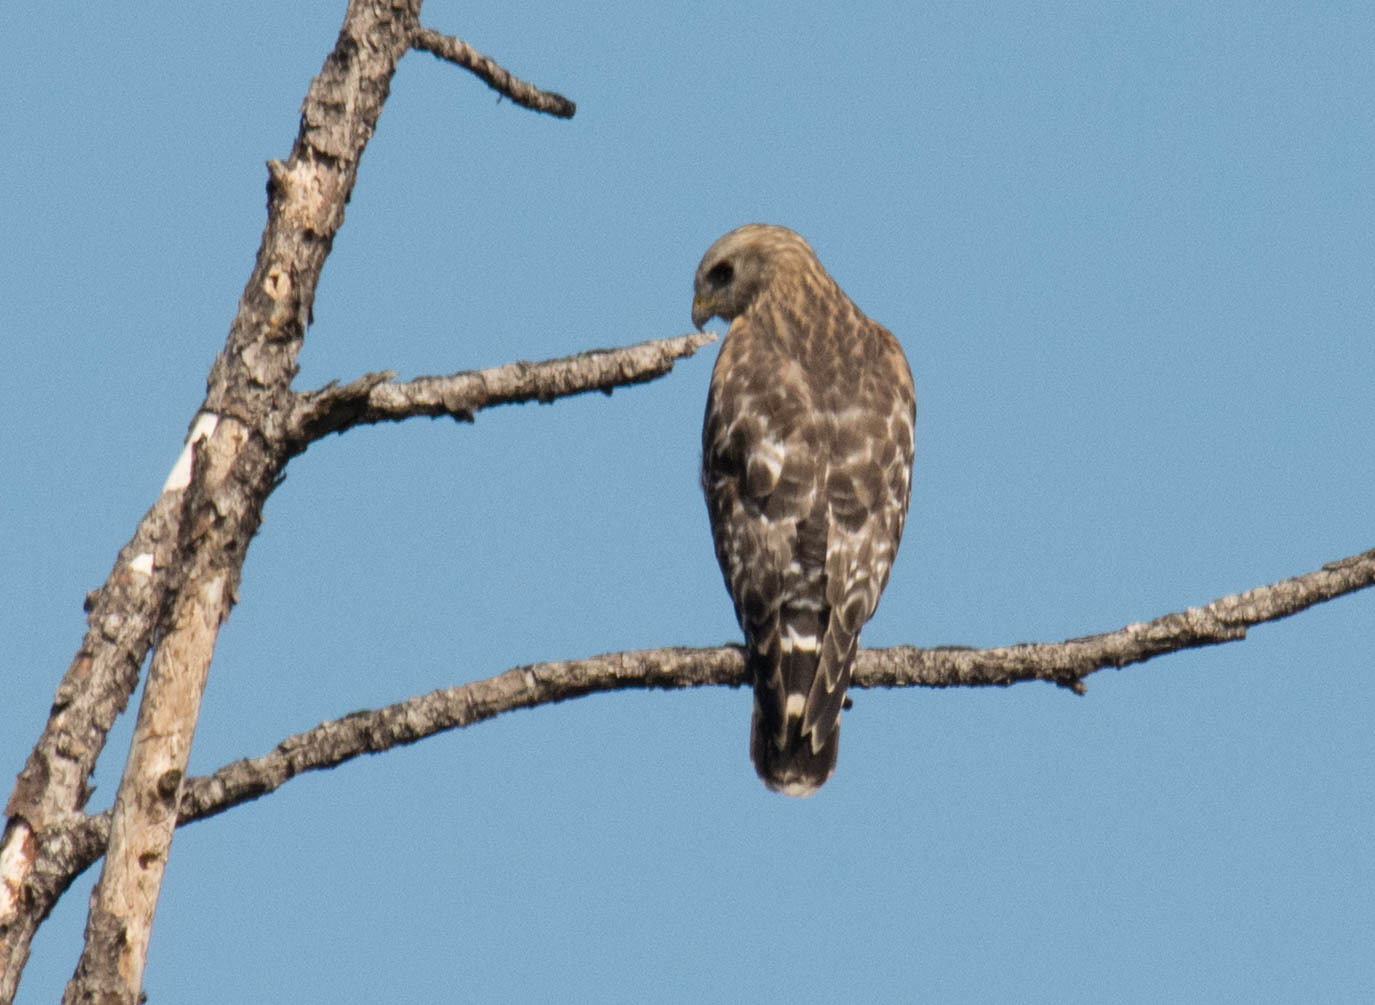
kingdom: Animalia
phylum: Chordata
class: Aves
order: Accipitriformes
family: Accipitridae
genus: Buteo
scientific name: Buteo lineatus
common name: Red-shouldered hawk
